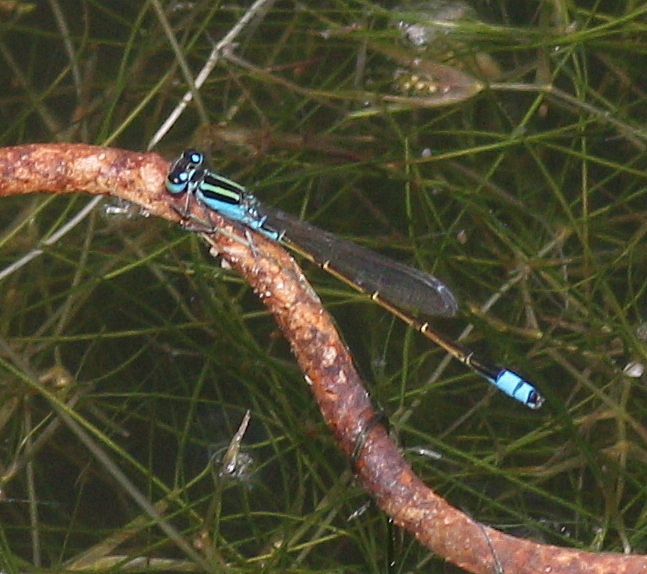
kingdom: Animalia
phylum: Arthropoda
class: Insecta
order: Odonata
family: Coenagrionidae
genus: Ischnura
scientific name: Ischnura fluviatilis
